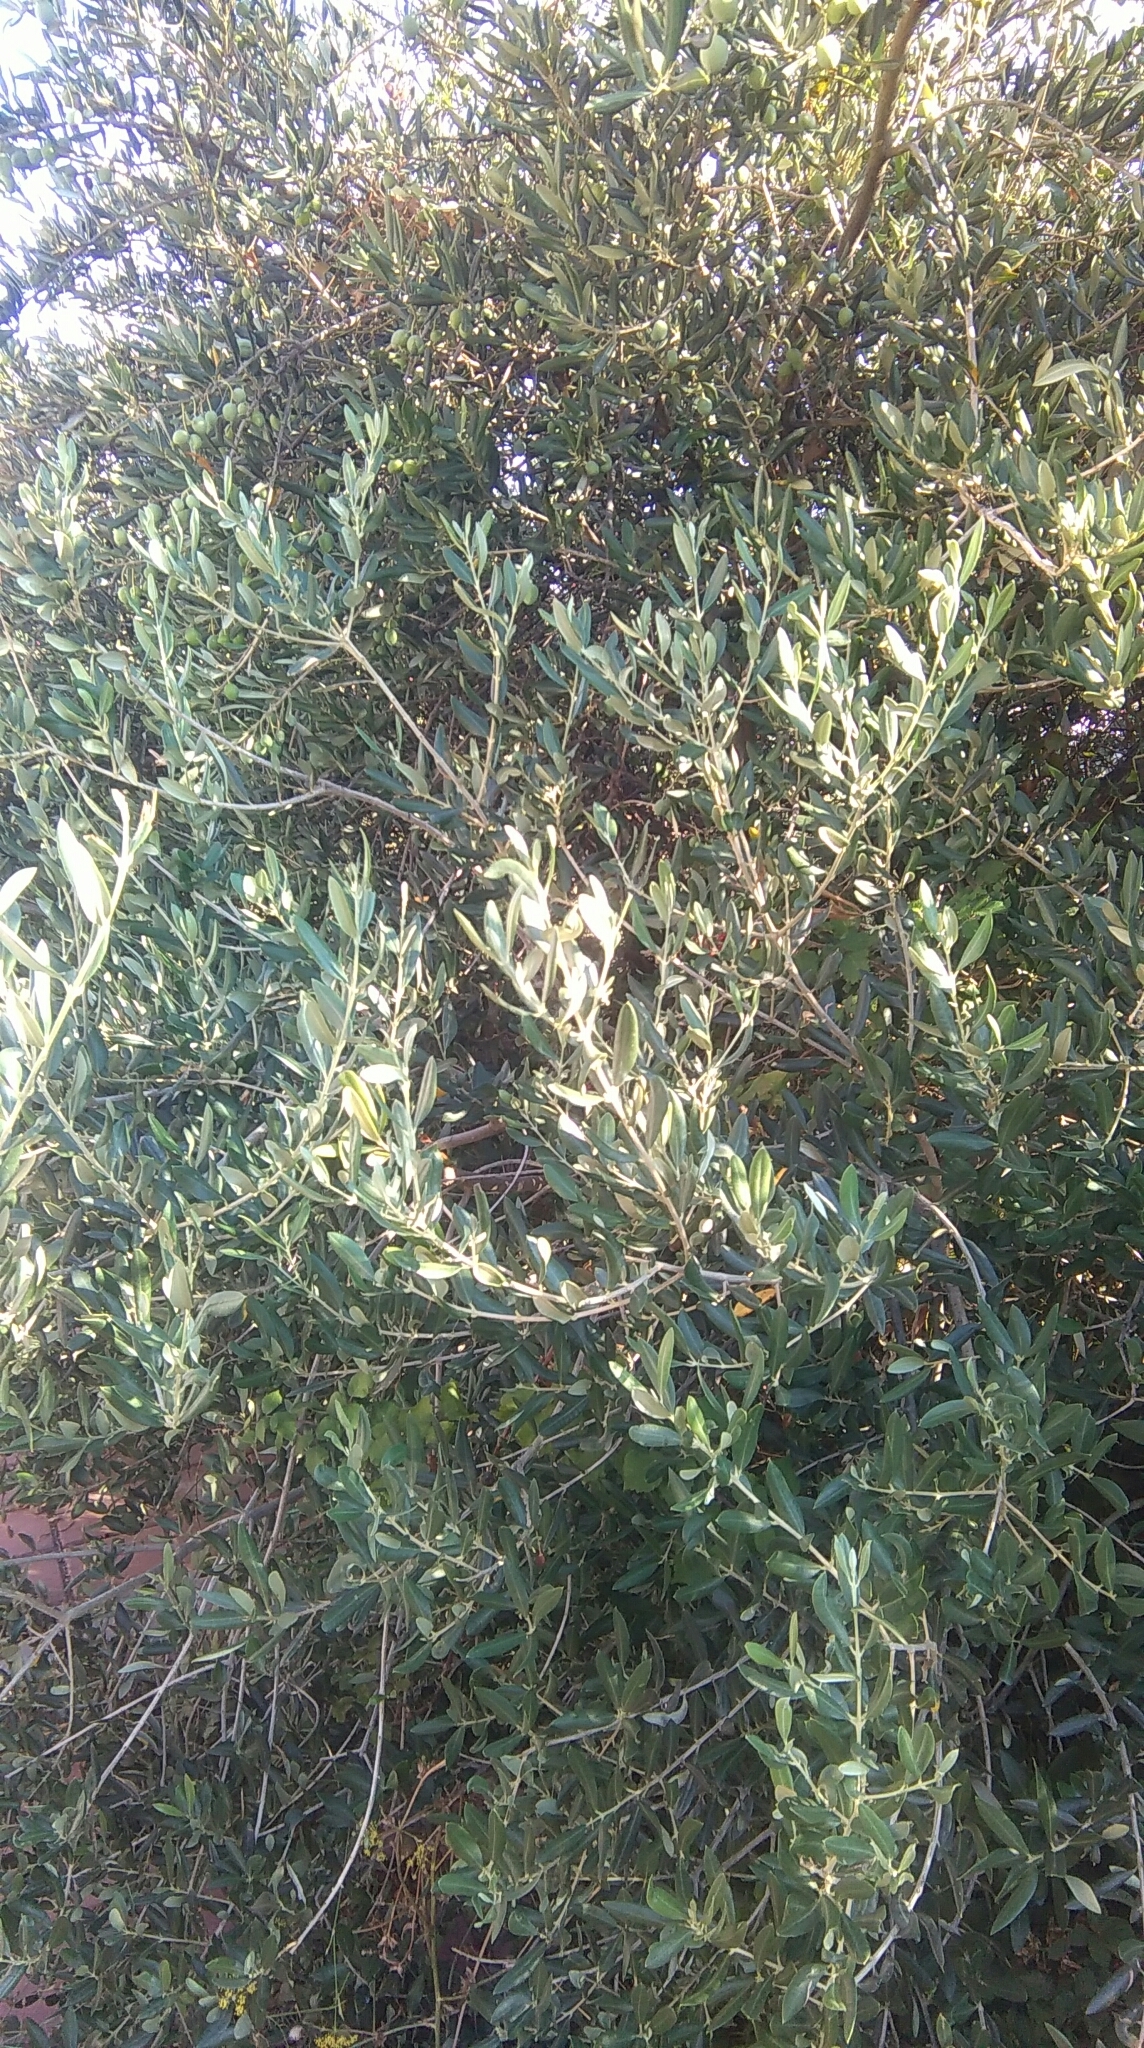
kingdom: Plantae
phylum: Tracheophyta
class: Magnoliopsida
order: Lamiales
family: Oleaceae
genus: Olea
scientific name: Olea europaea
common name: Olive
